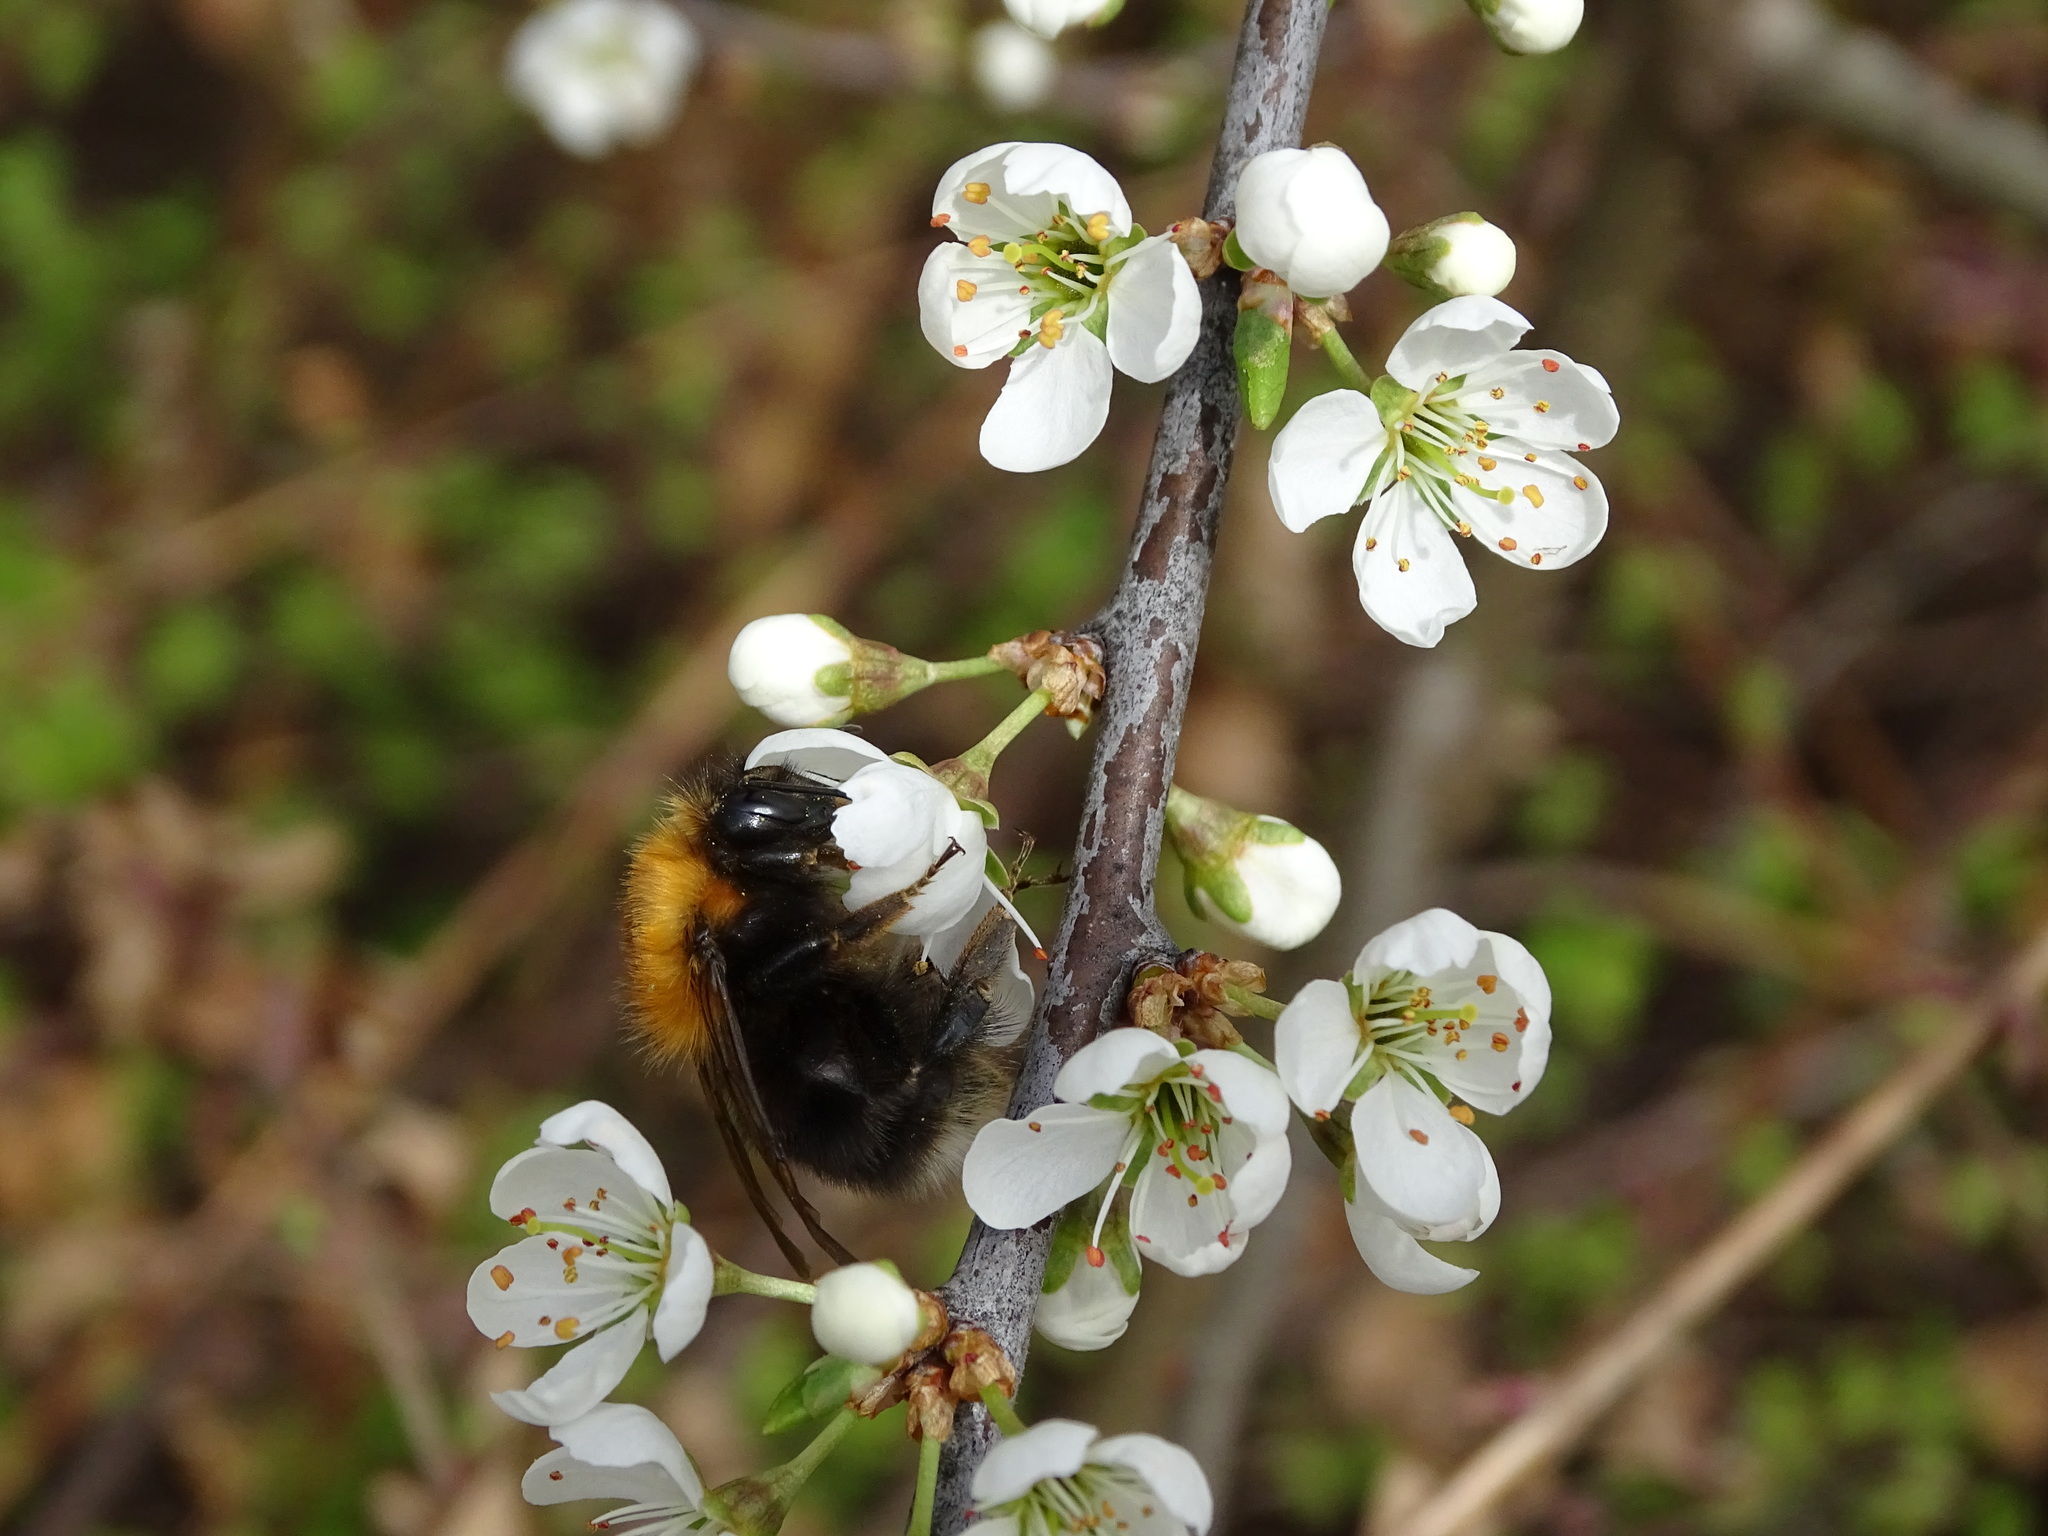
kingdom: Animalia
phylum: Arthropoda
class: Insecta
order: Hymenoptera
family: Apidae
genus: Bombus
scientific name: Bombus hypnorum
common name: New garden bumblebee
